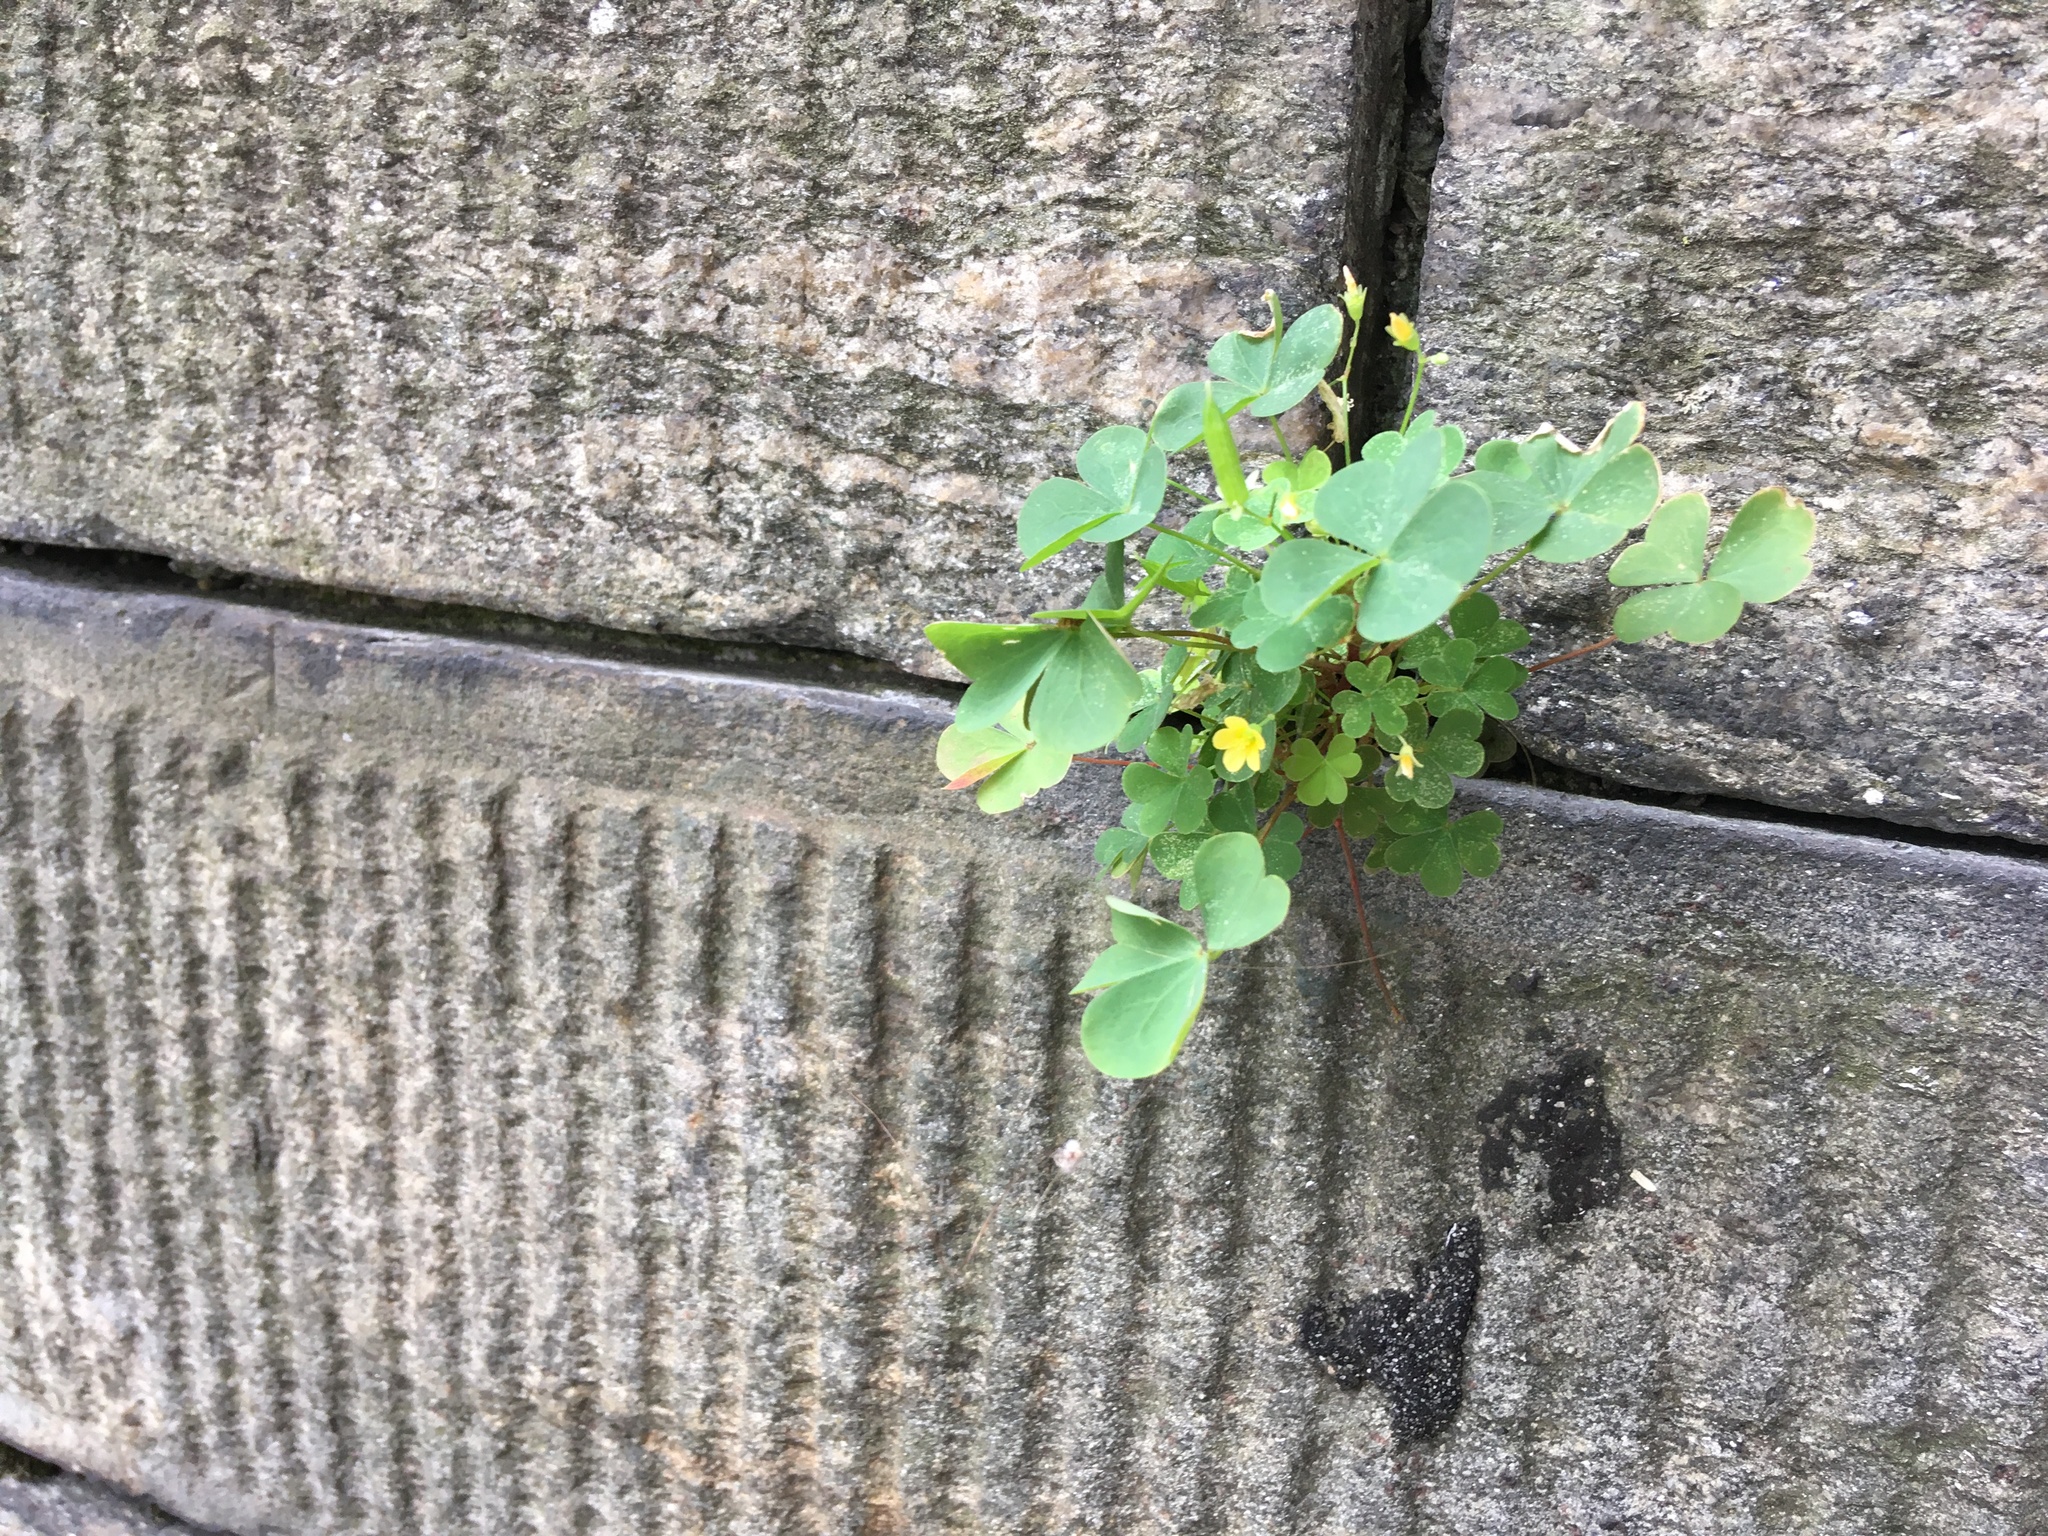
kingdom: Plantae
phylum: Tracheophyta
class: Magnoliopsida
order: Oxalidales
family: Oxalidaceae
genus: Oxalis
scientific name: Oxalis corniculata
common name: Procumbent yellow-sorrel
